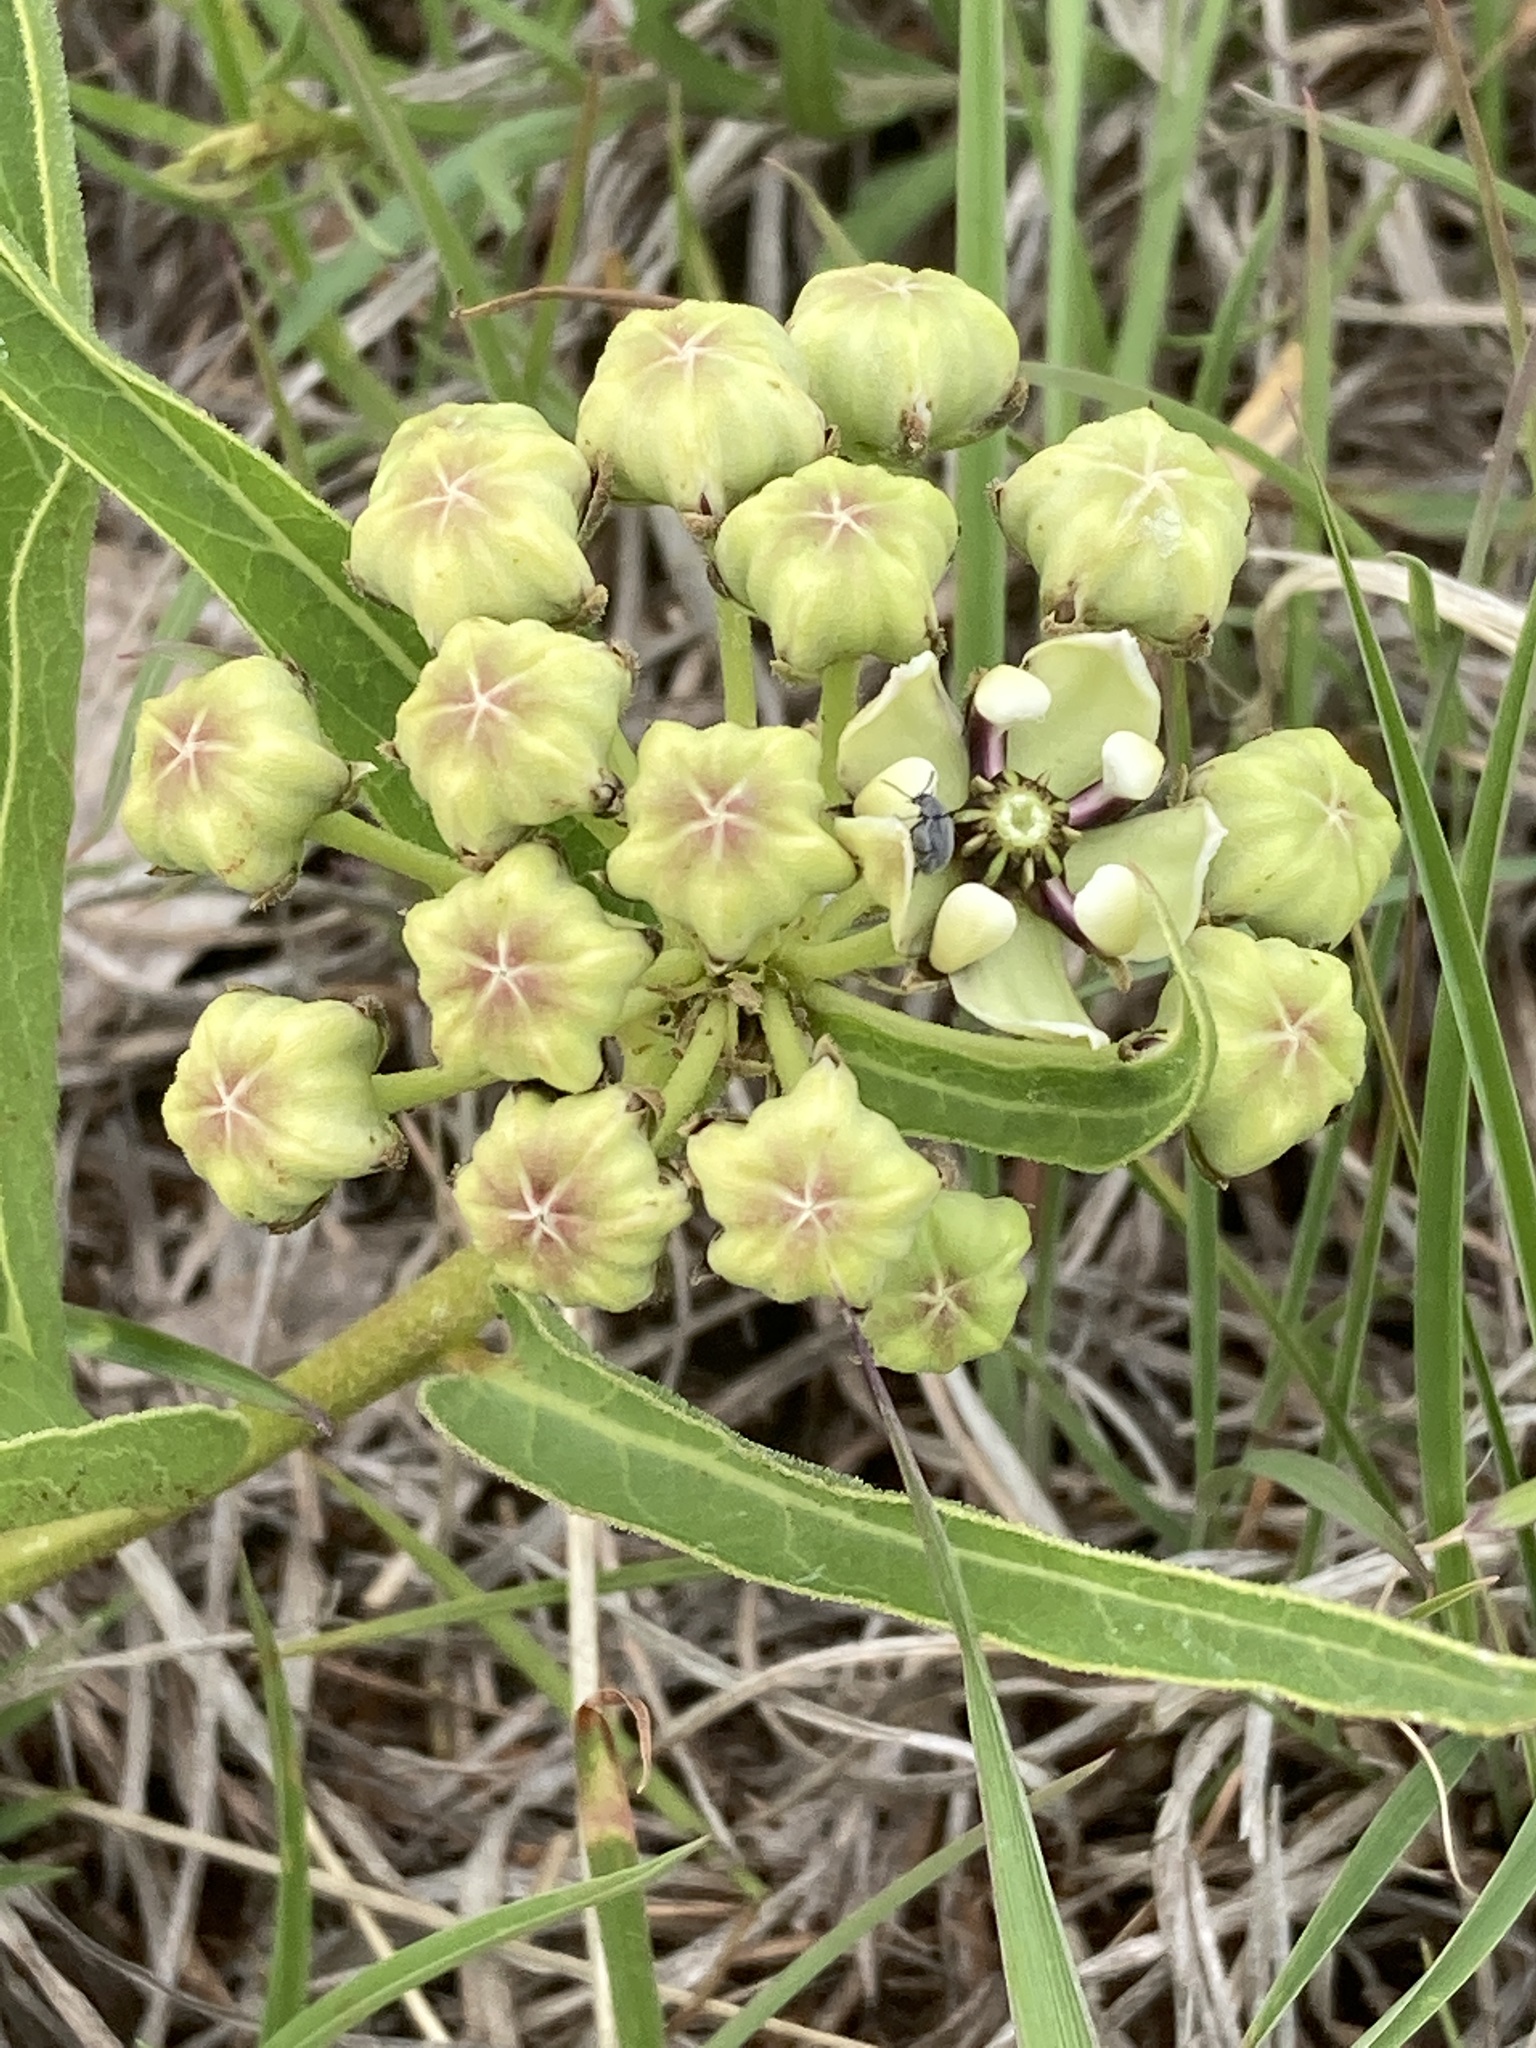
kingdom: Plantae
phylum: Tracheophyta
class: Magnoliopsida
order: Gentianales
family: Apocynaceae
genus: Asclepias
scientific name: Asclepias asperula
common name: Antelope horns
